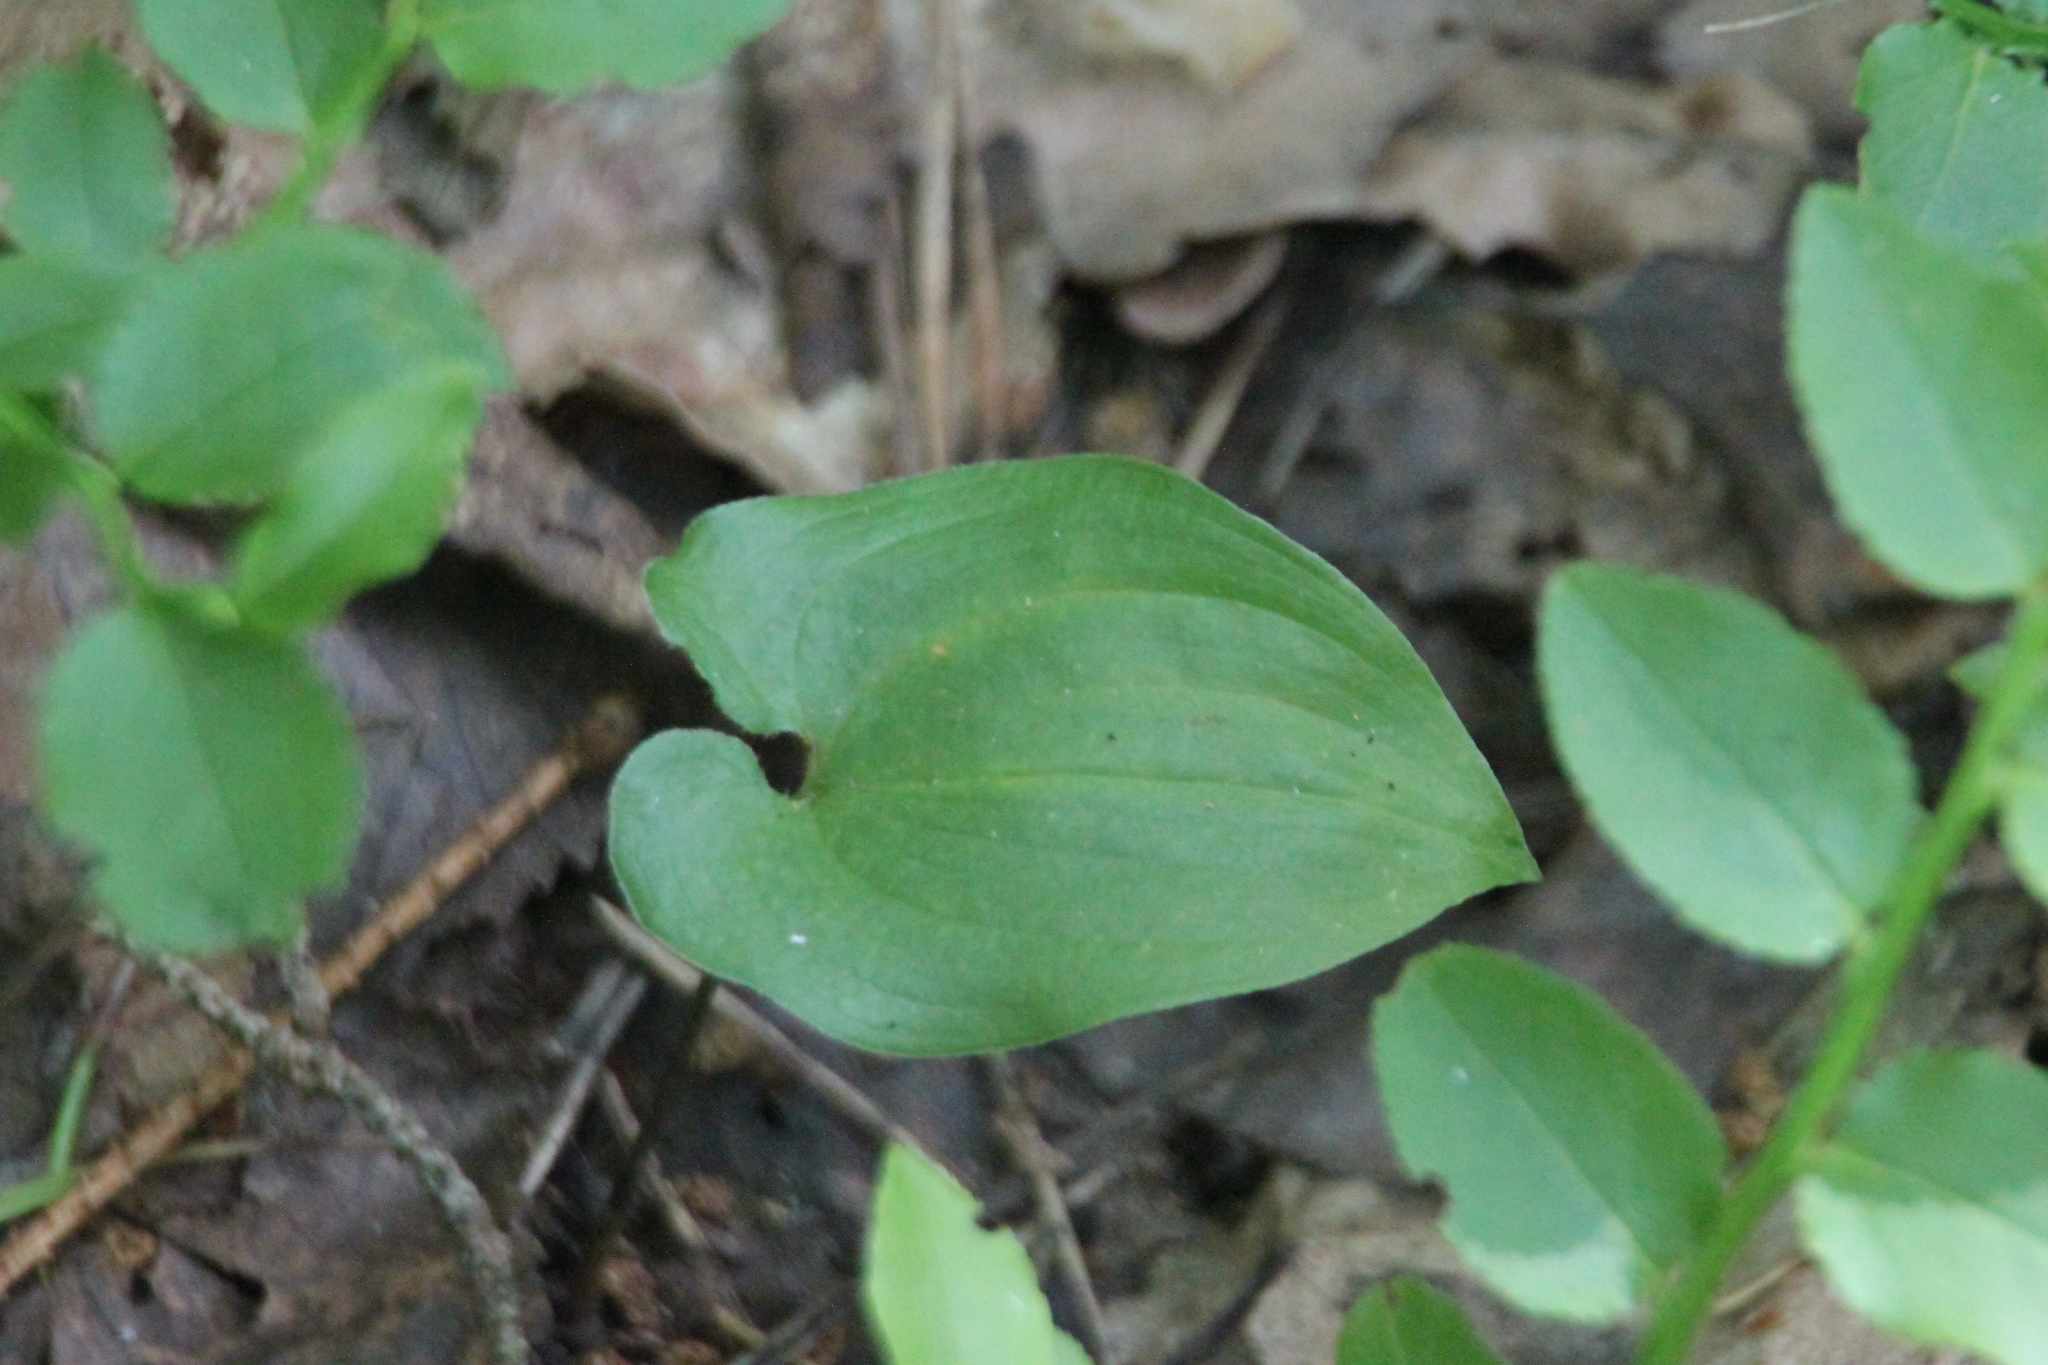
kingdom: Plantae
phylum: Tracheophyta
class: Liliopsida
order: Asparagales
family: Asparagaceae
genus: Maianthemum
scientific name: Maianthemum bifolium
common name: May lily
